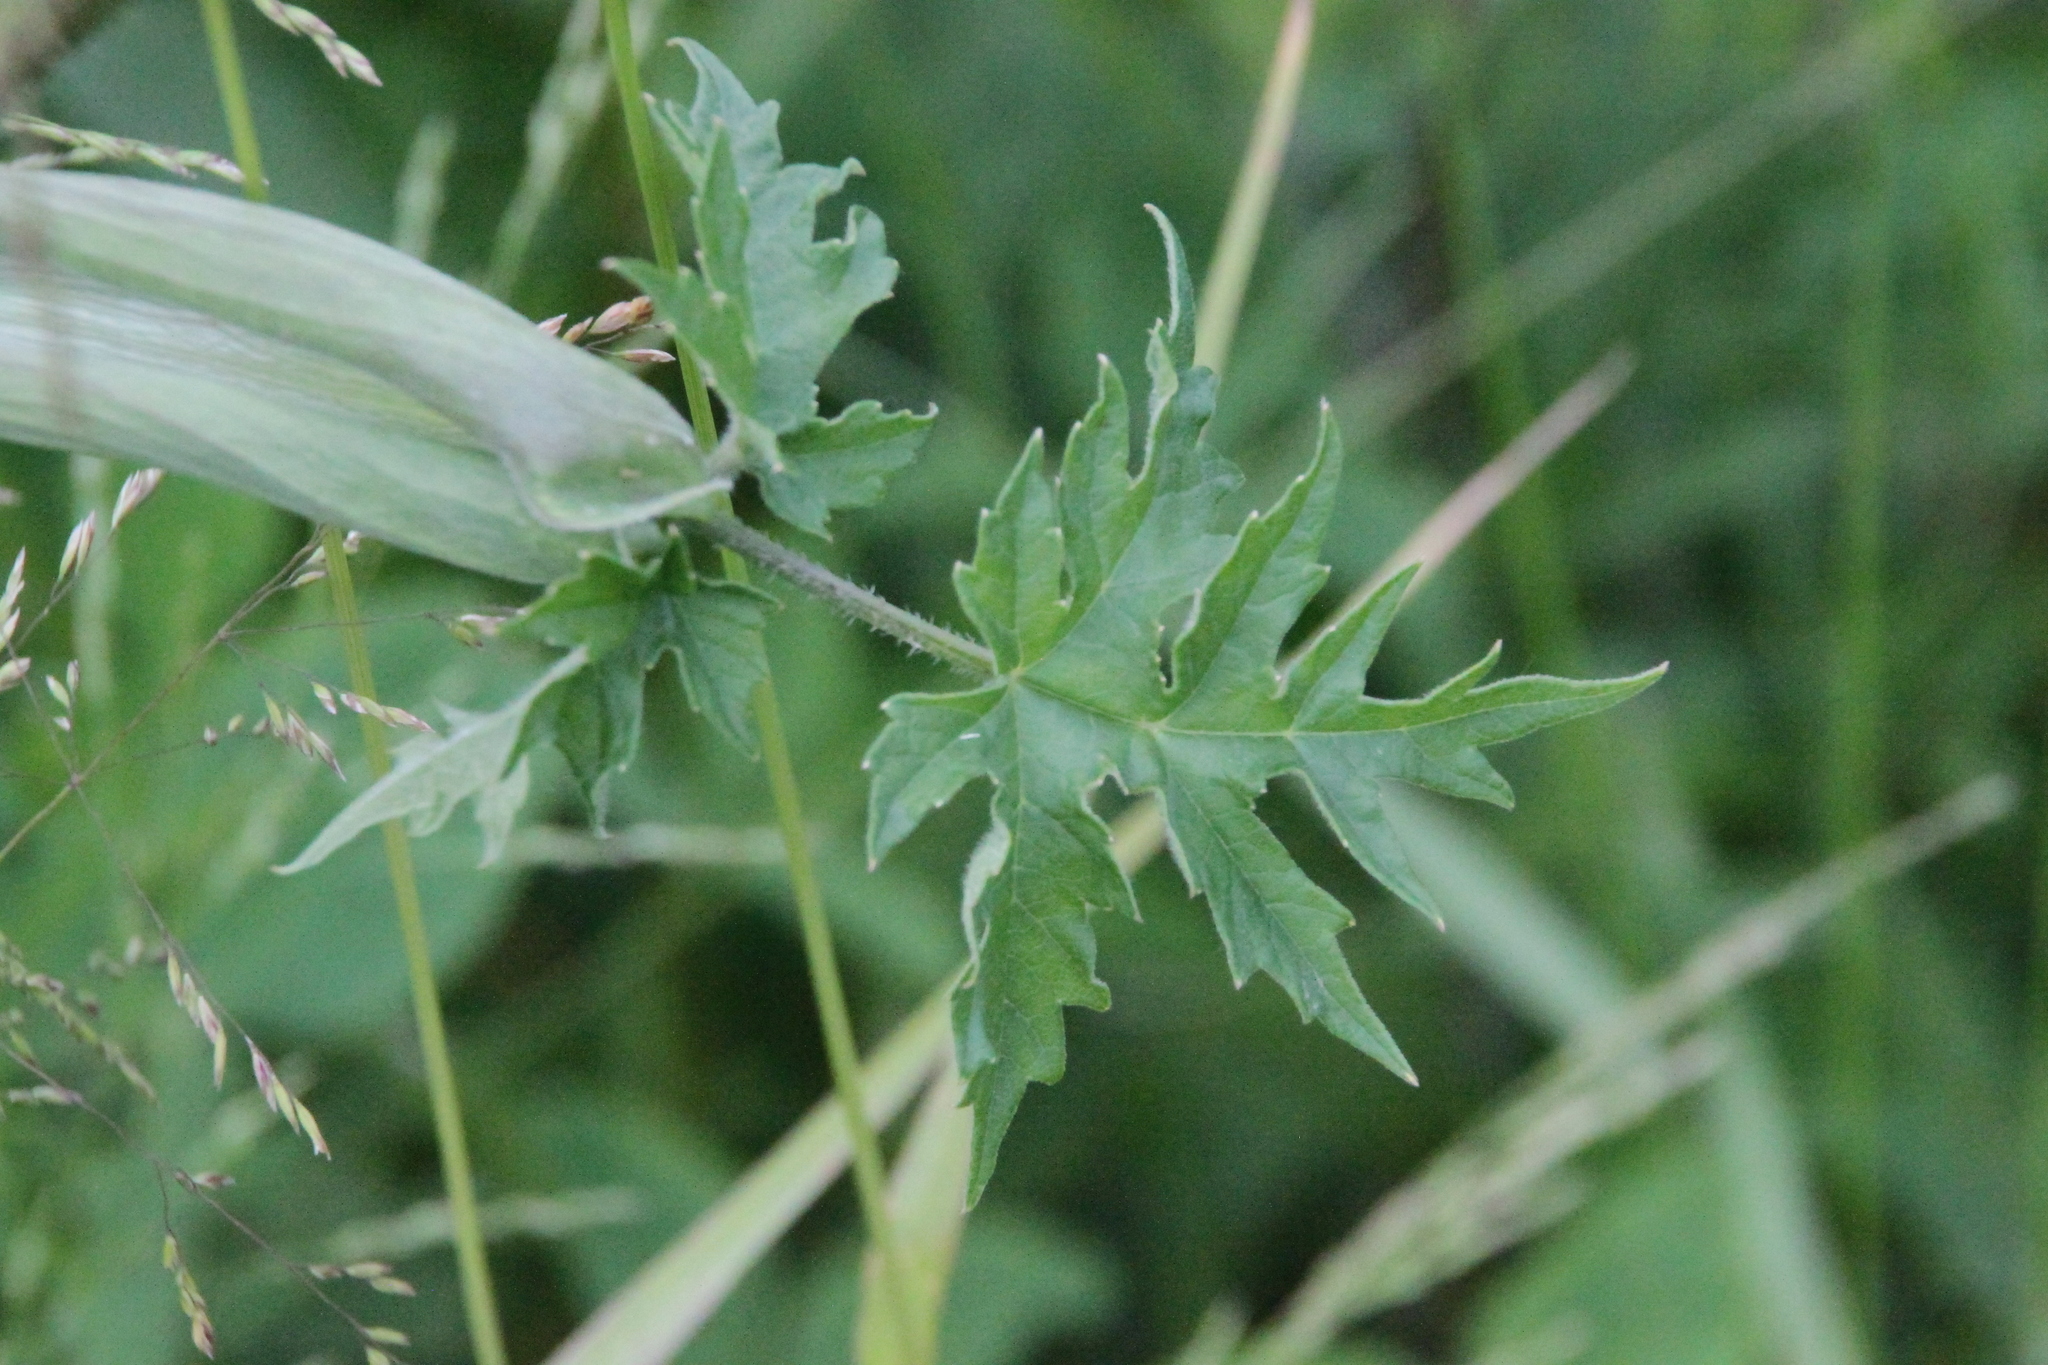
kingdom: Plantae
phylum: Tracheophyta
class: Magnoliopsida
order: Apiales
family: Apiaceae
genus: Heracleum
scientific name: Heracleum sphondylium
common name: Hogweed
